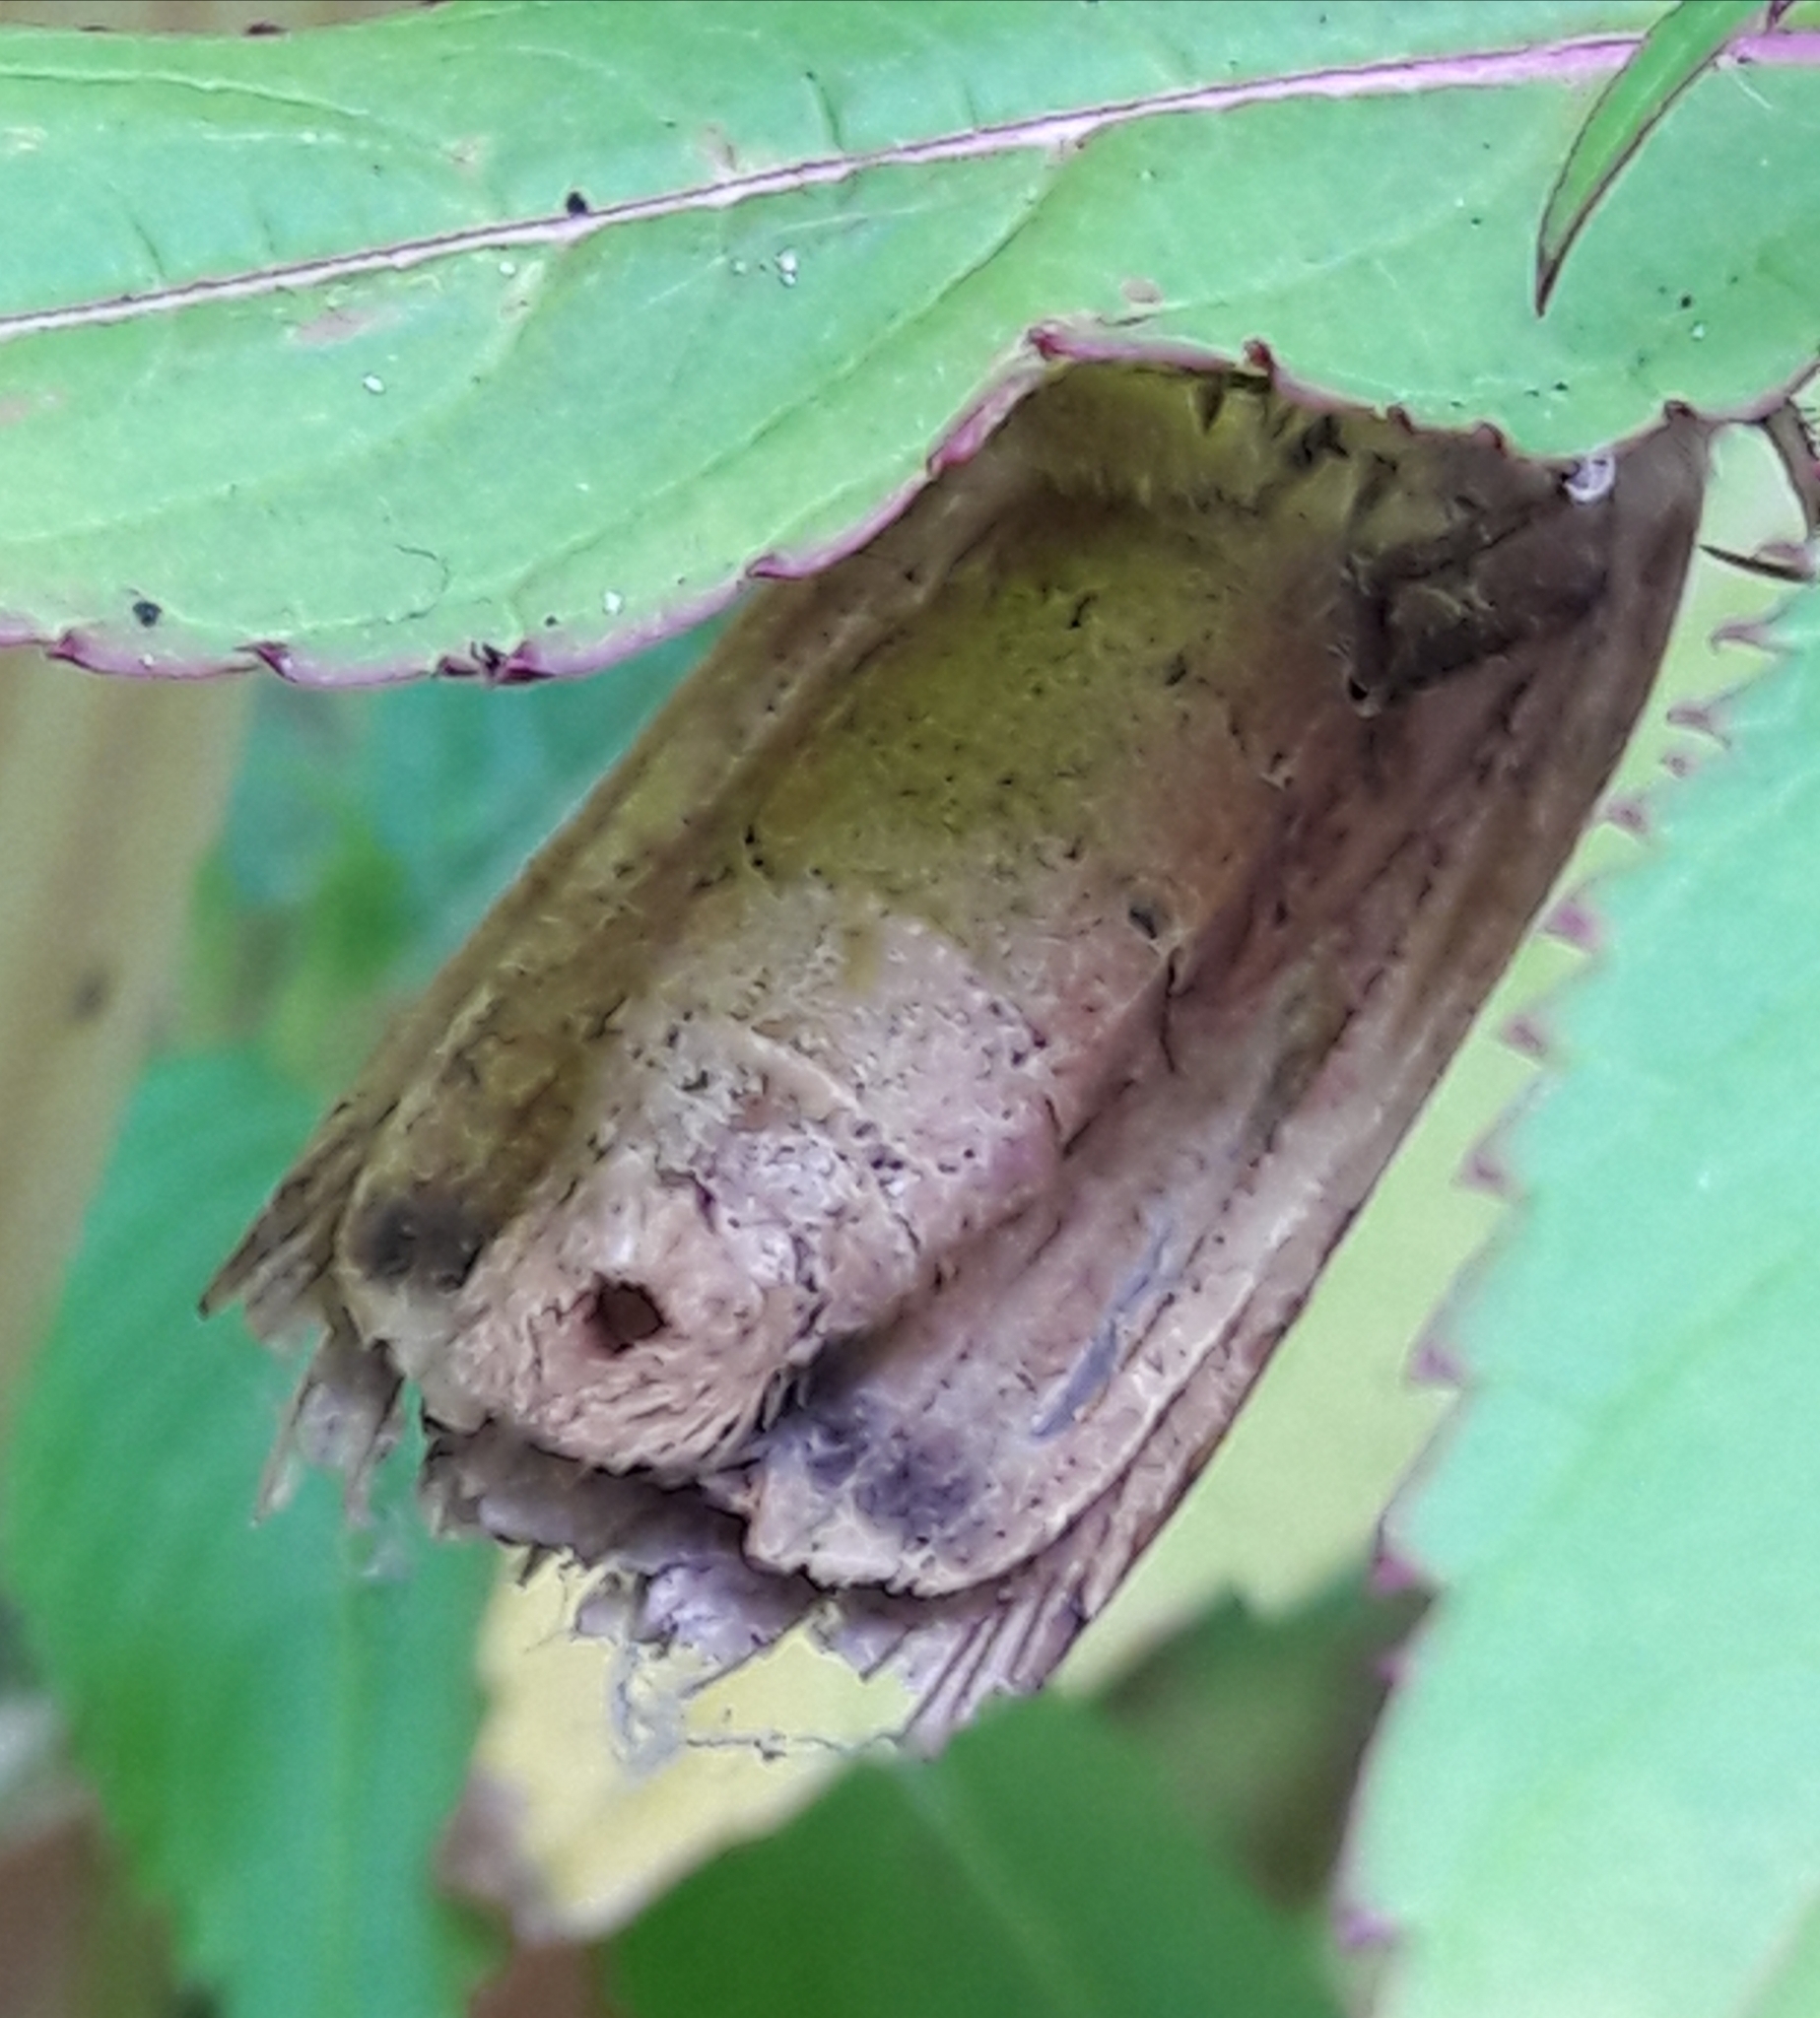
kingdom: Animalia
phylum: Arthropoda
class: Insecta
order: Lepidoptera
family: Noctuidae
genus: Noctua
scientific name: Noctua pronuba
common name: Large yellow underwing
